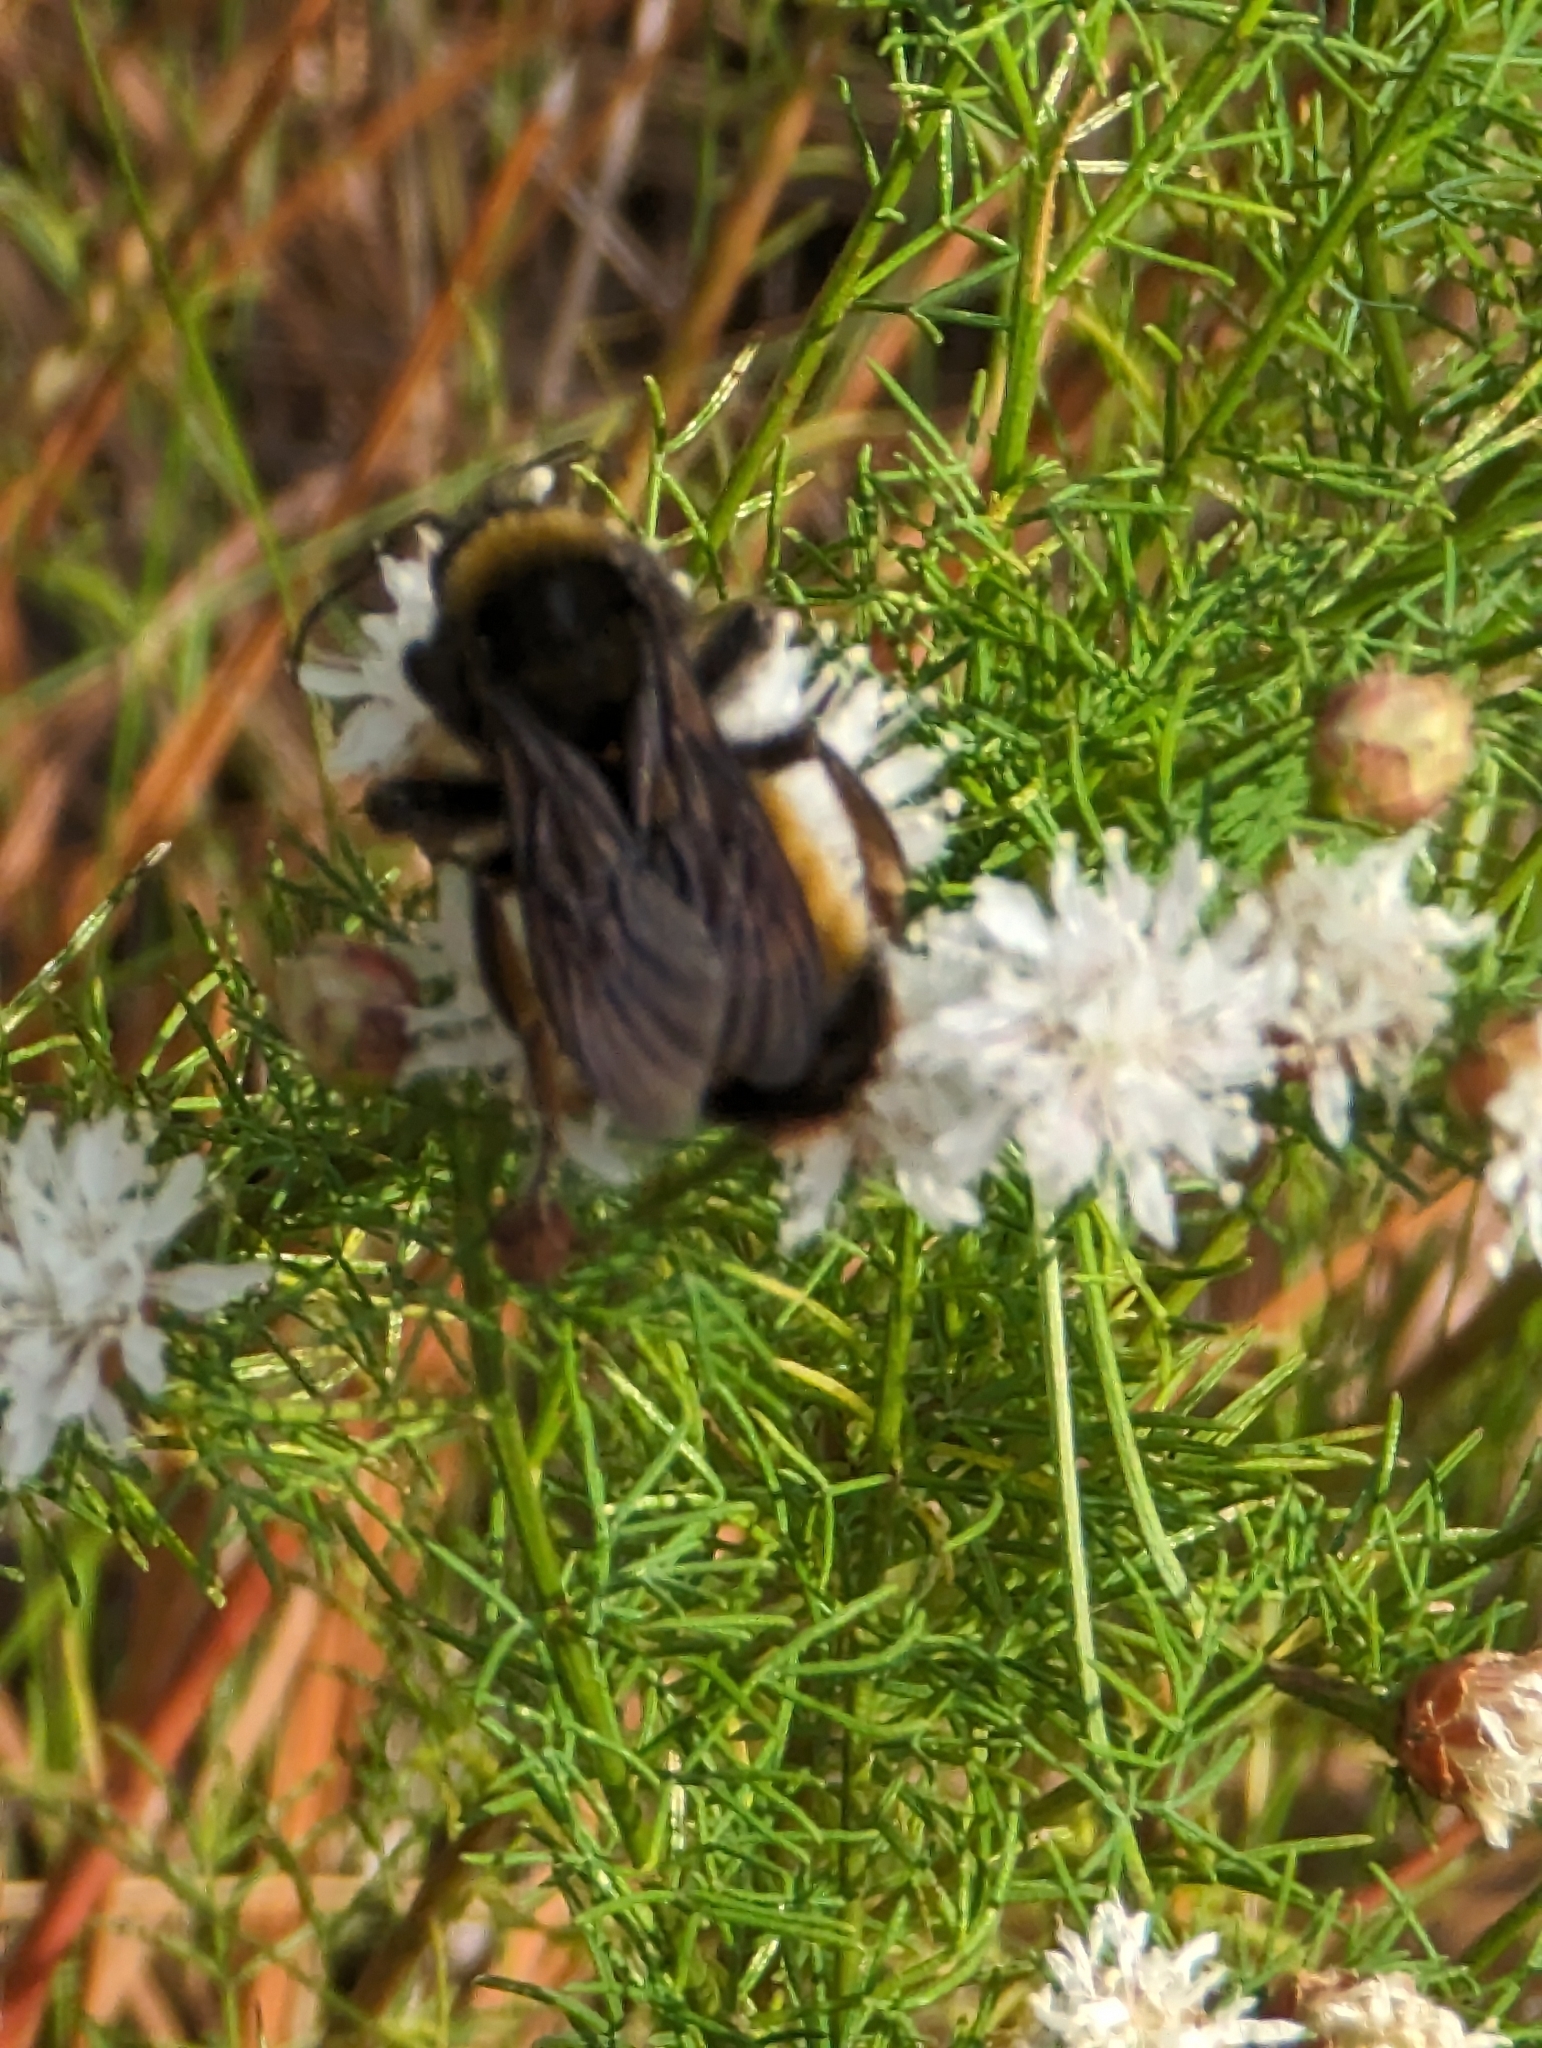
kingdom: Animalia
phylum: Arthropoda
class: Insecta
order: Hymenoptera
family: Apidae
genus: Bombus
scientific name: Bombus pensylvanicus
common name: Bumble bee
